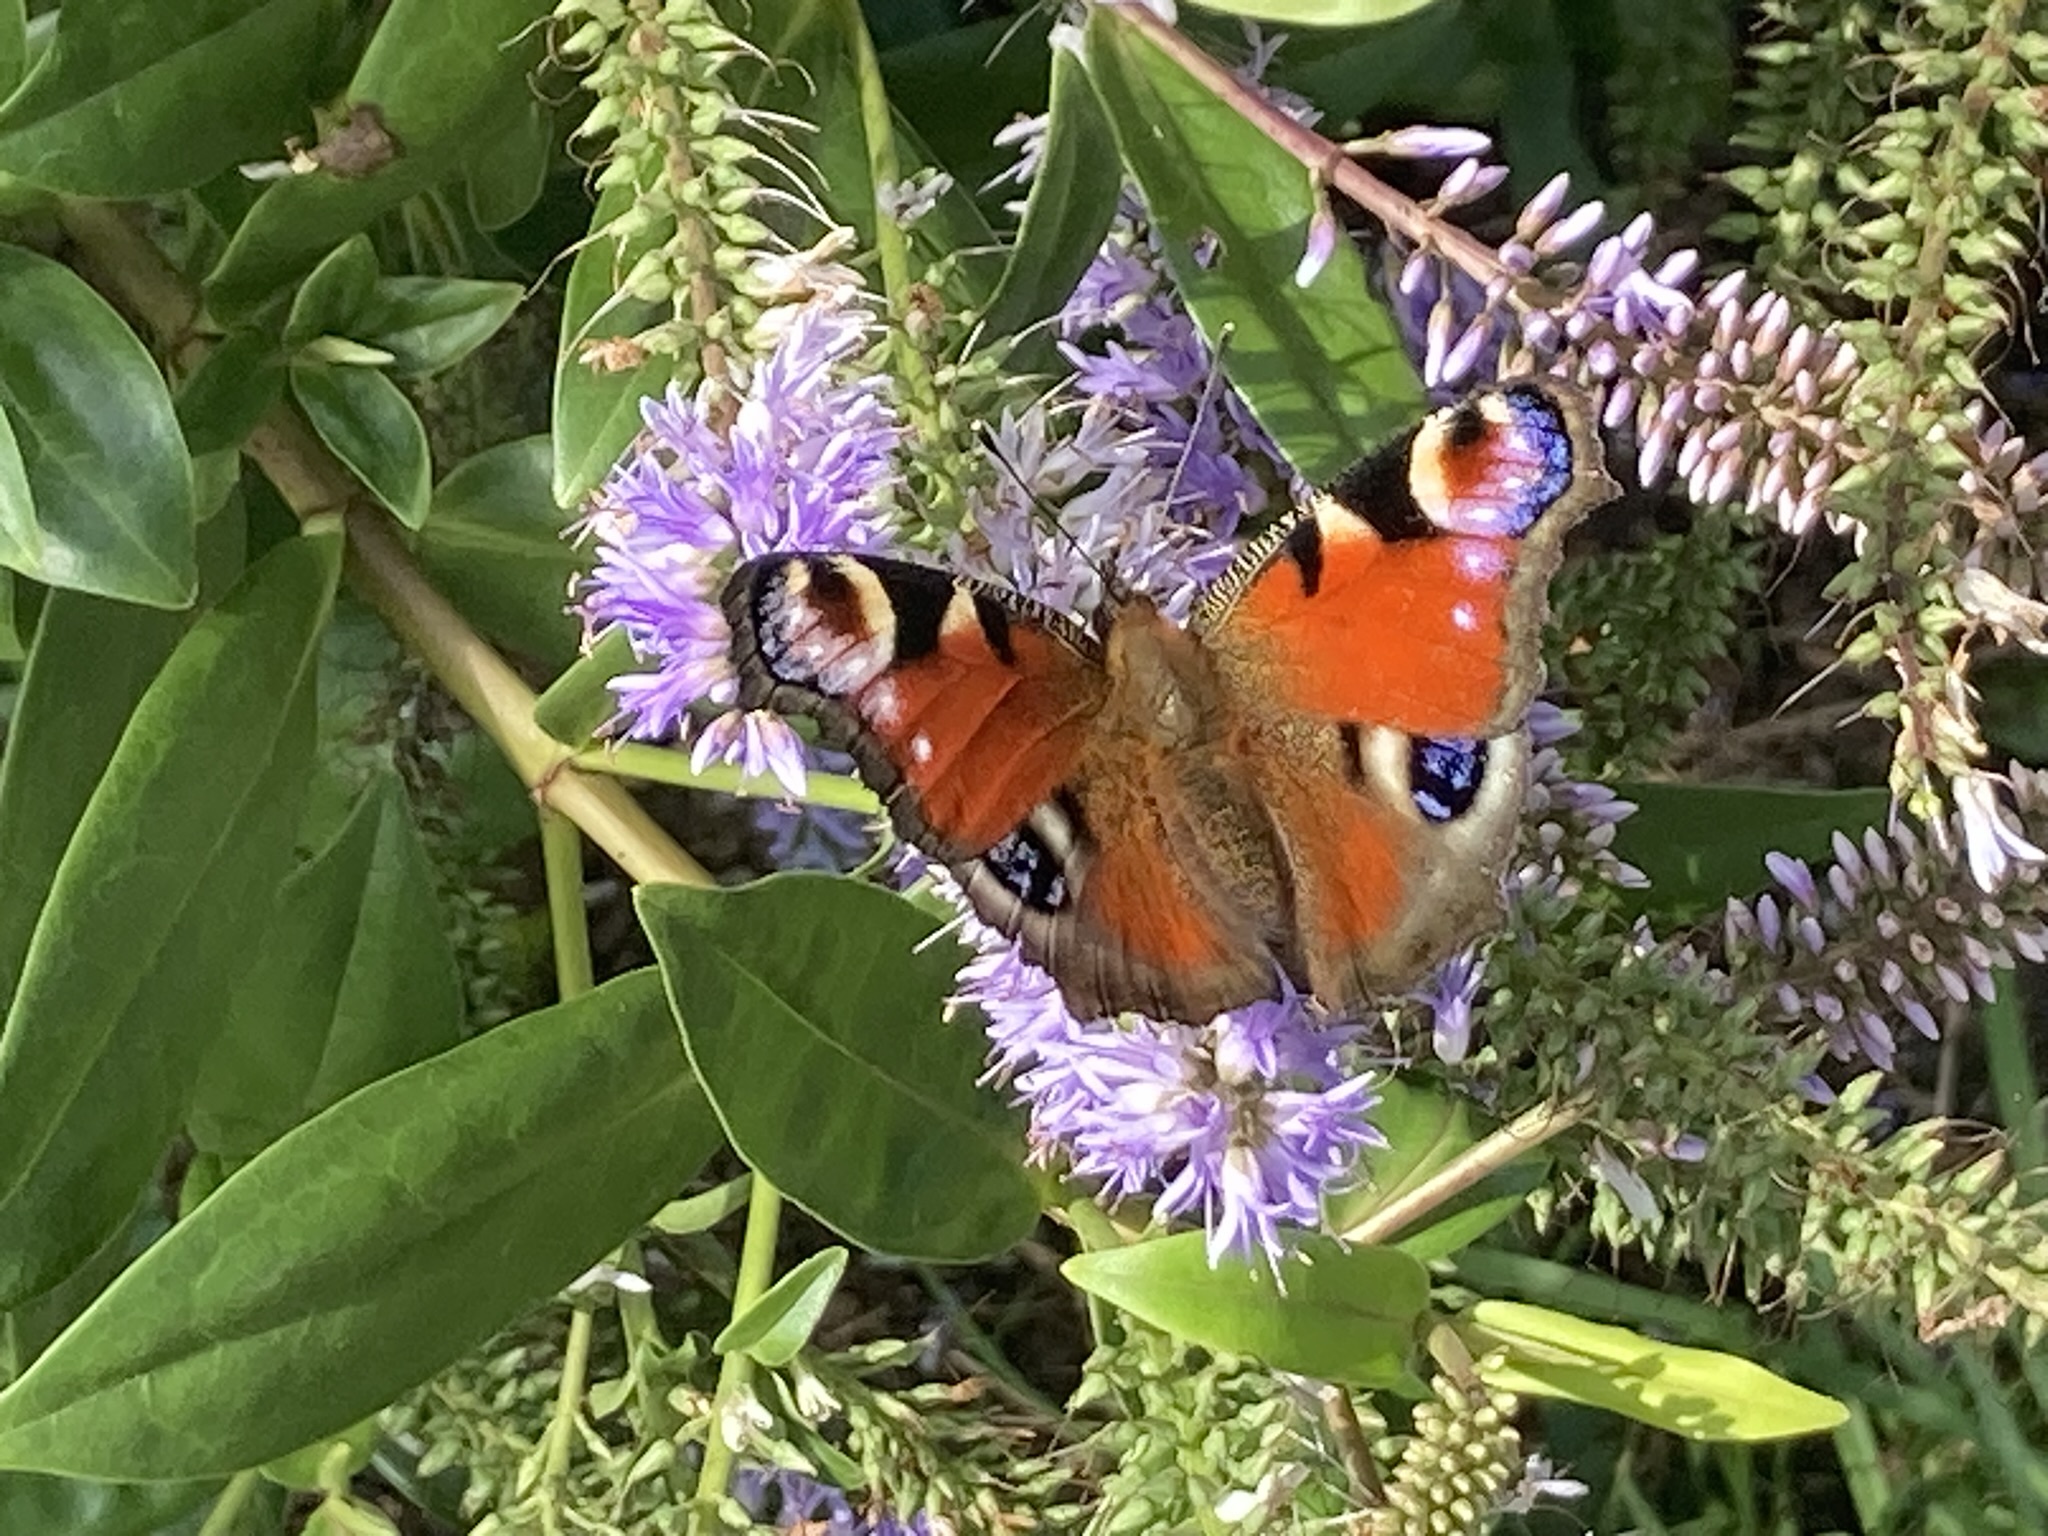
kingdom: Animalia
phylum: Arthropoda
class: Insecta
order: Lepidoptera
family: Nymphalidae
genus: Aglais
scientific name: Aglais io
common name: Peacock
